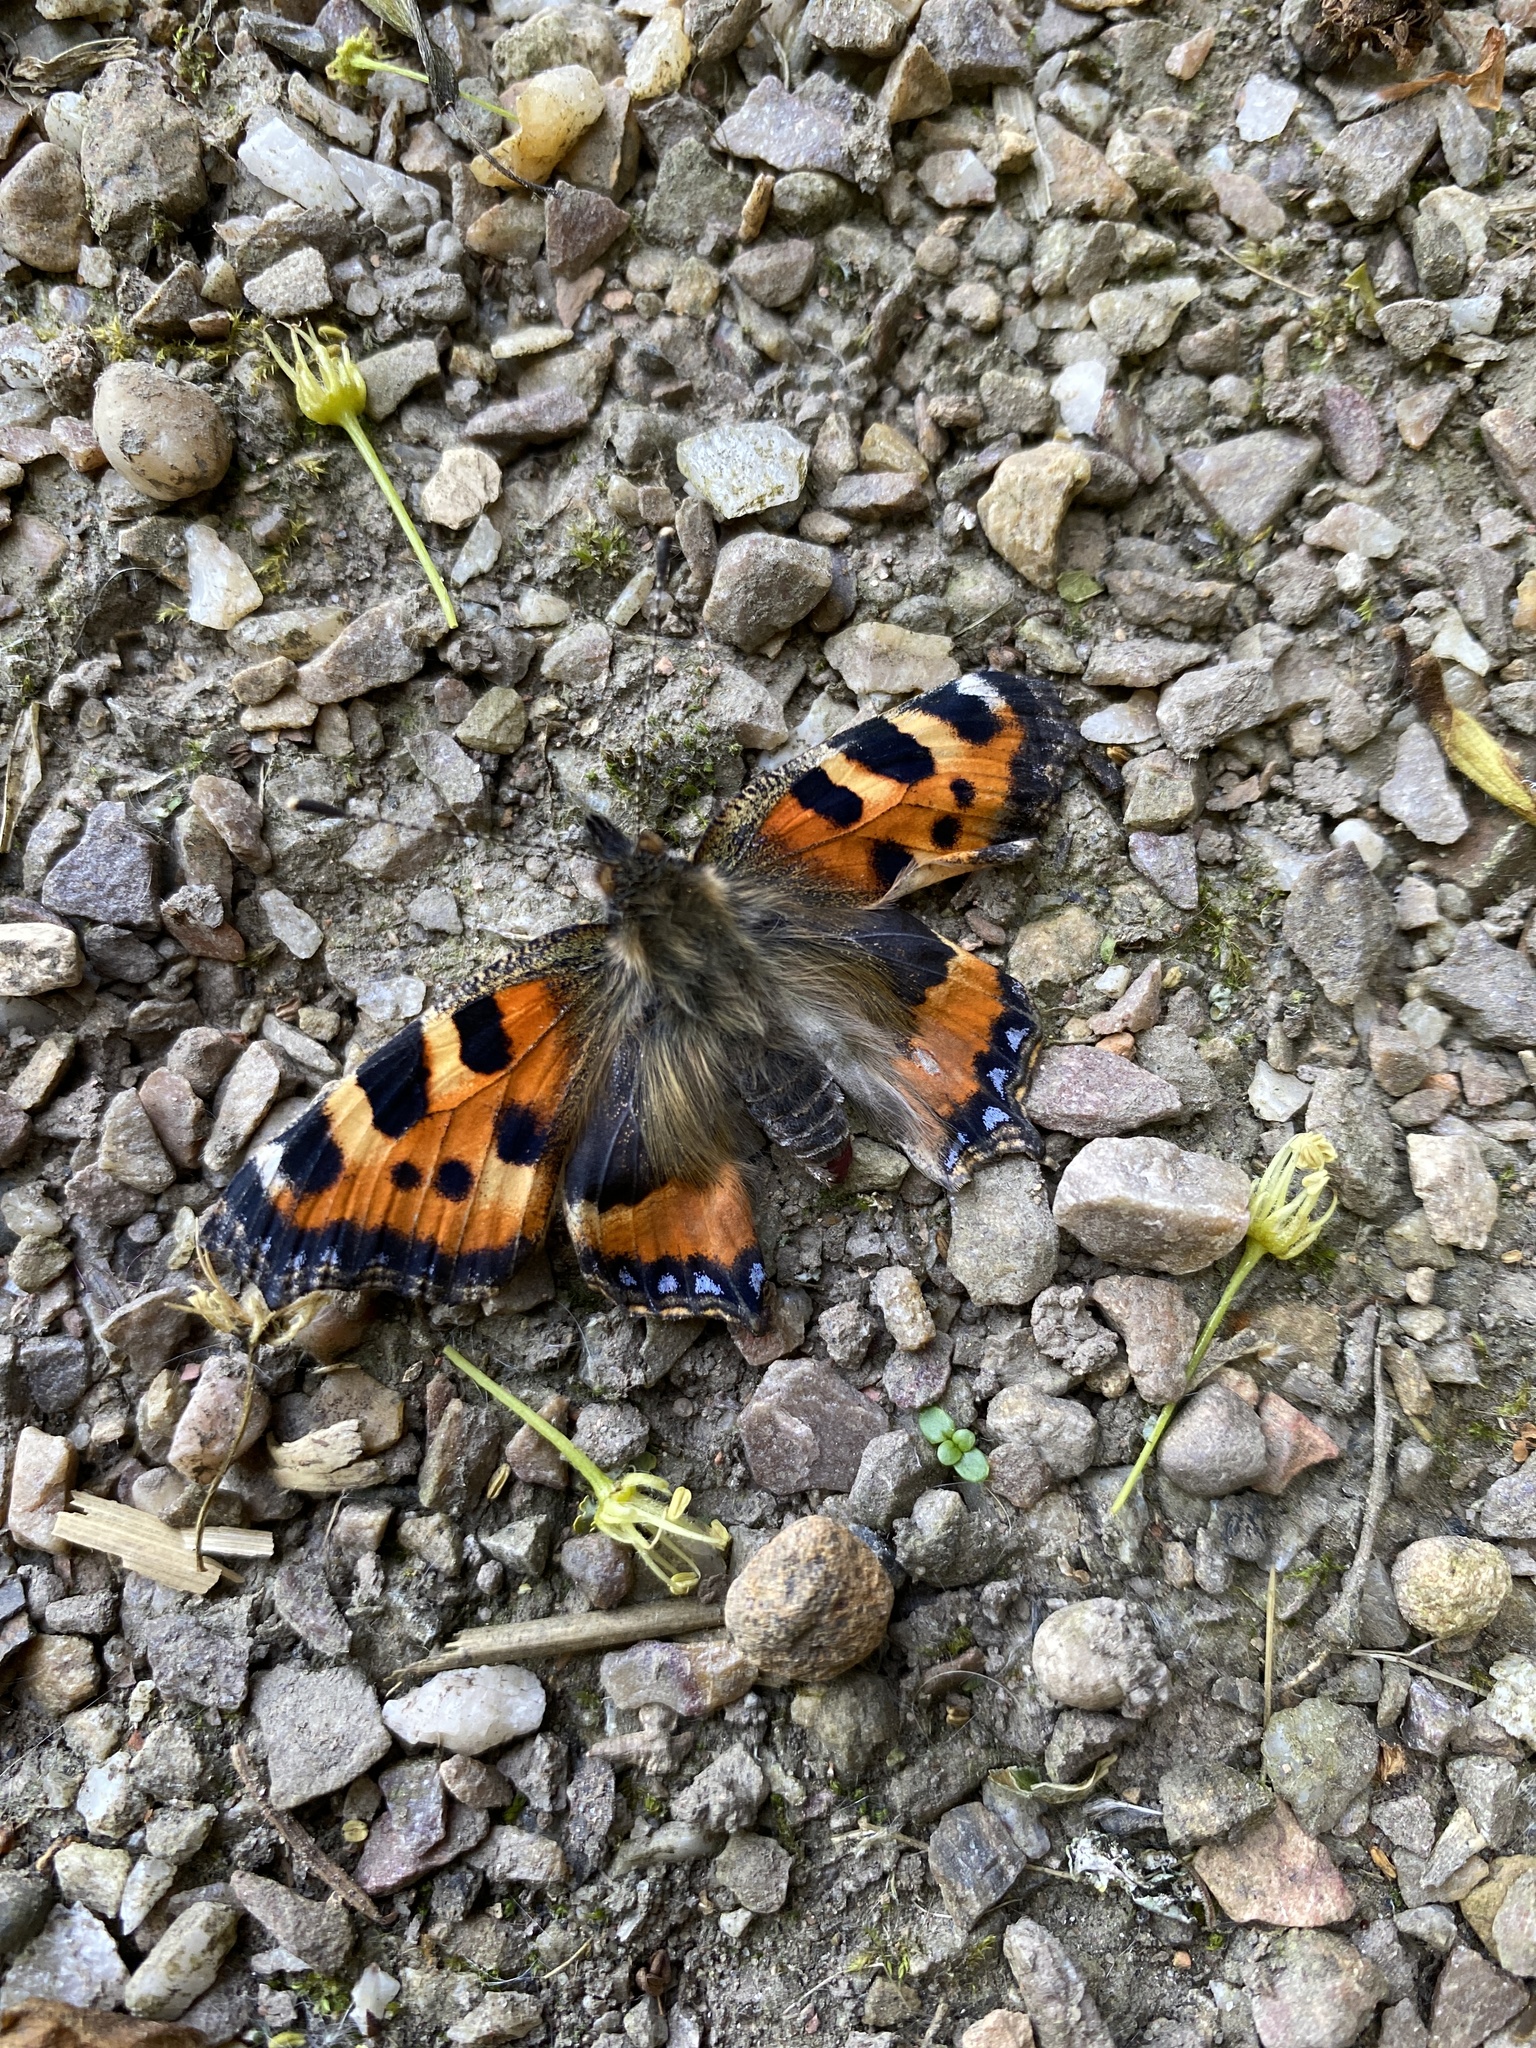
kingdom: Animalia
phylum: Arthropoda
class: Insecta
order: Lepidoptera
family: Nymphalidae
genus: Aglais
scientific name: Aglais urticae
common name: Small tortoiseshell
